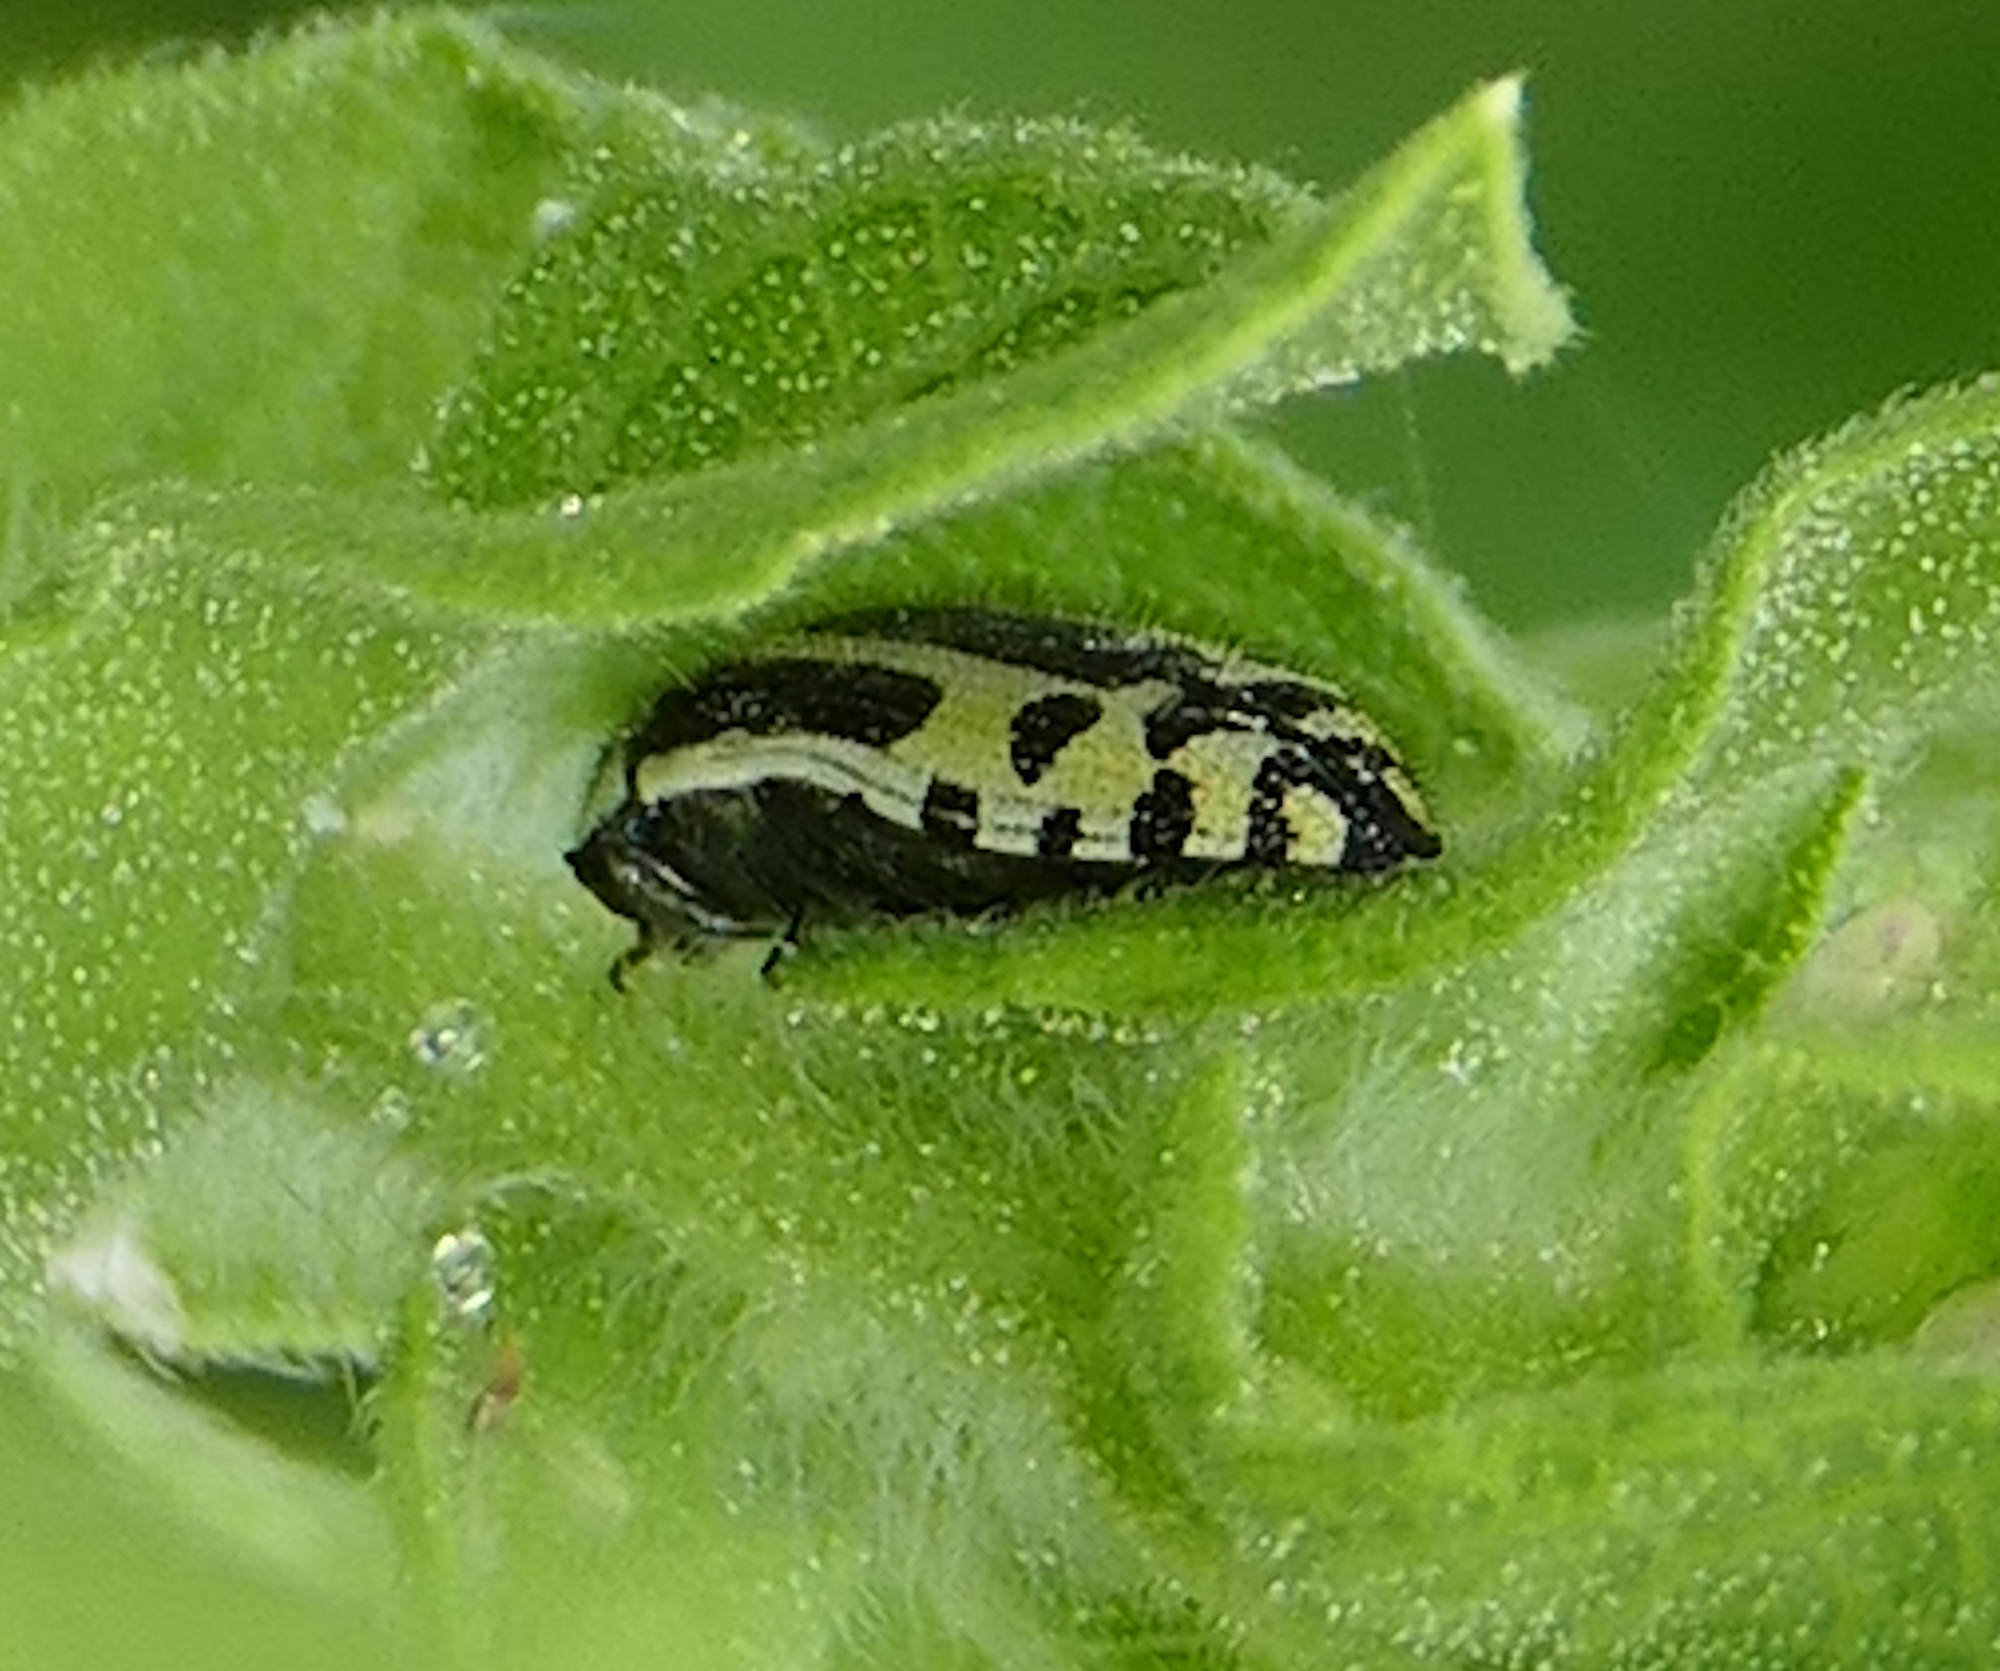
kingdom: Animalia
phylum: Arthropoda
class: Insecta
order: Coleoptera
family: Buprestidae
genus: Acmaeodera
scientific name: Acmaeodera scalaris
